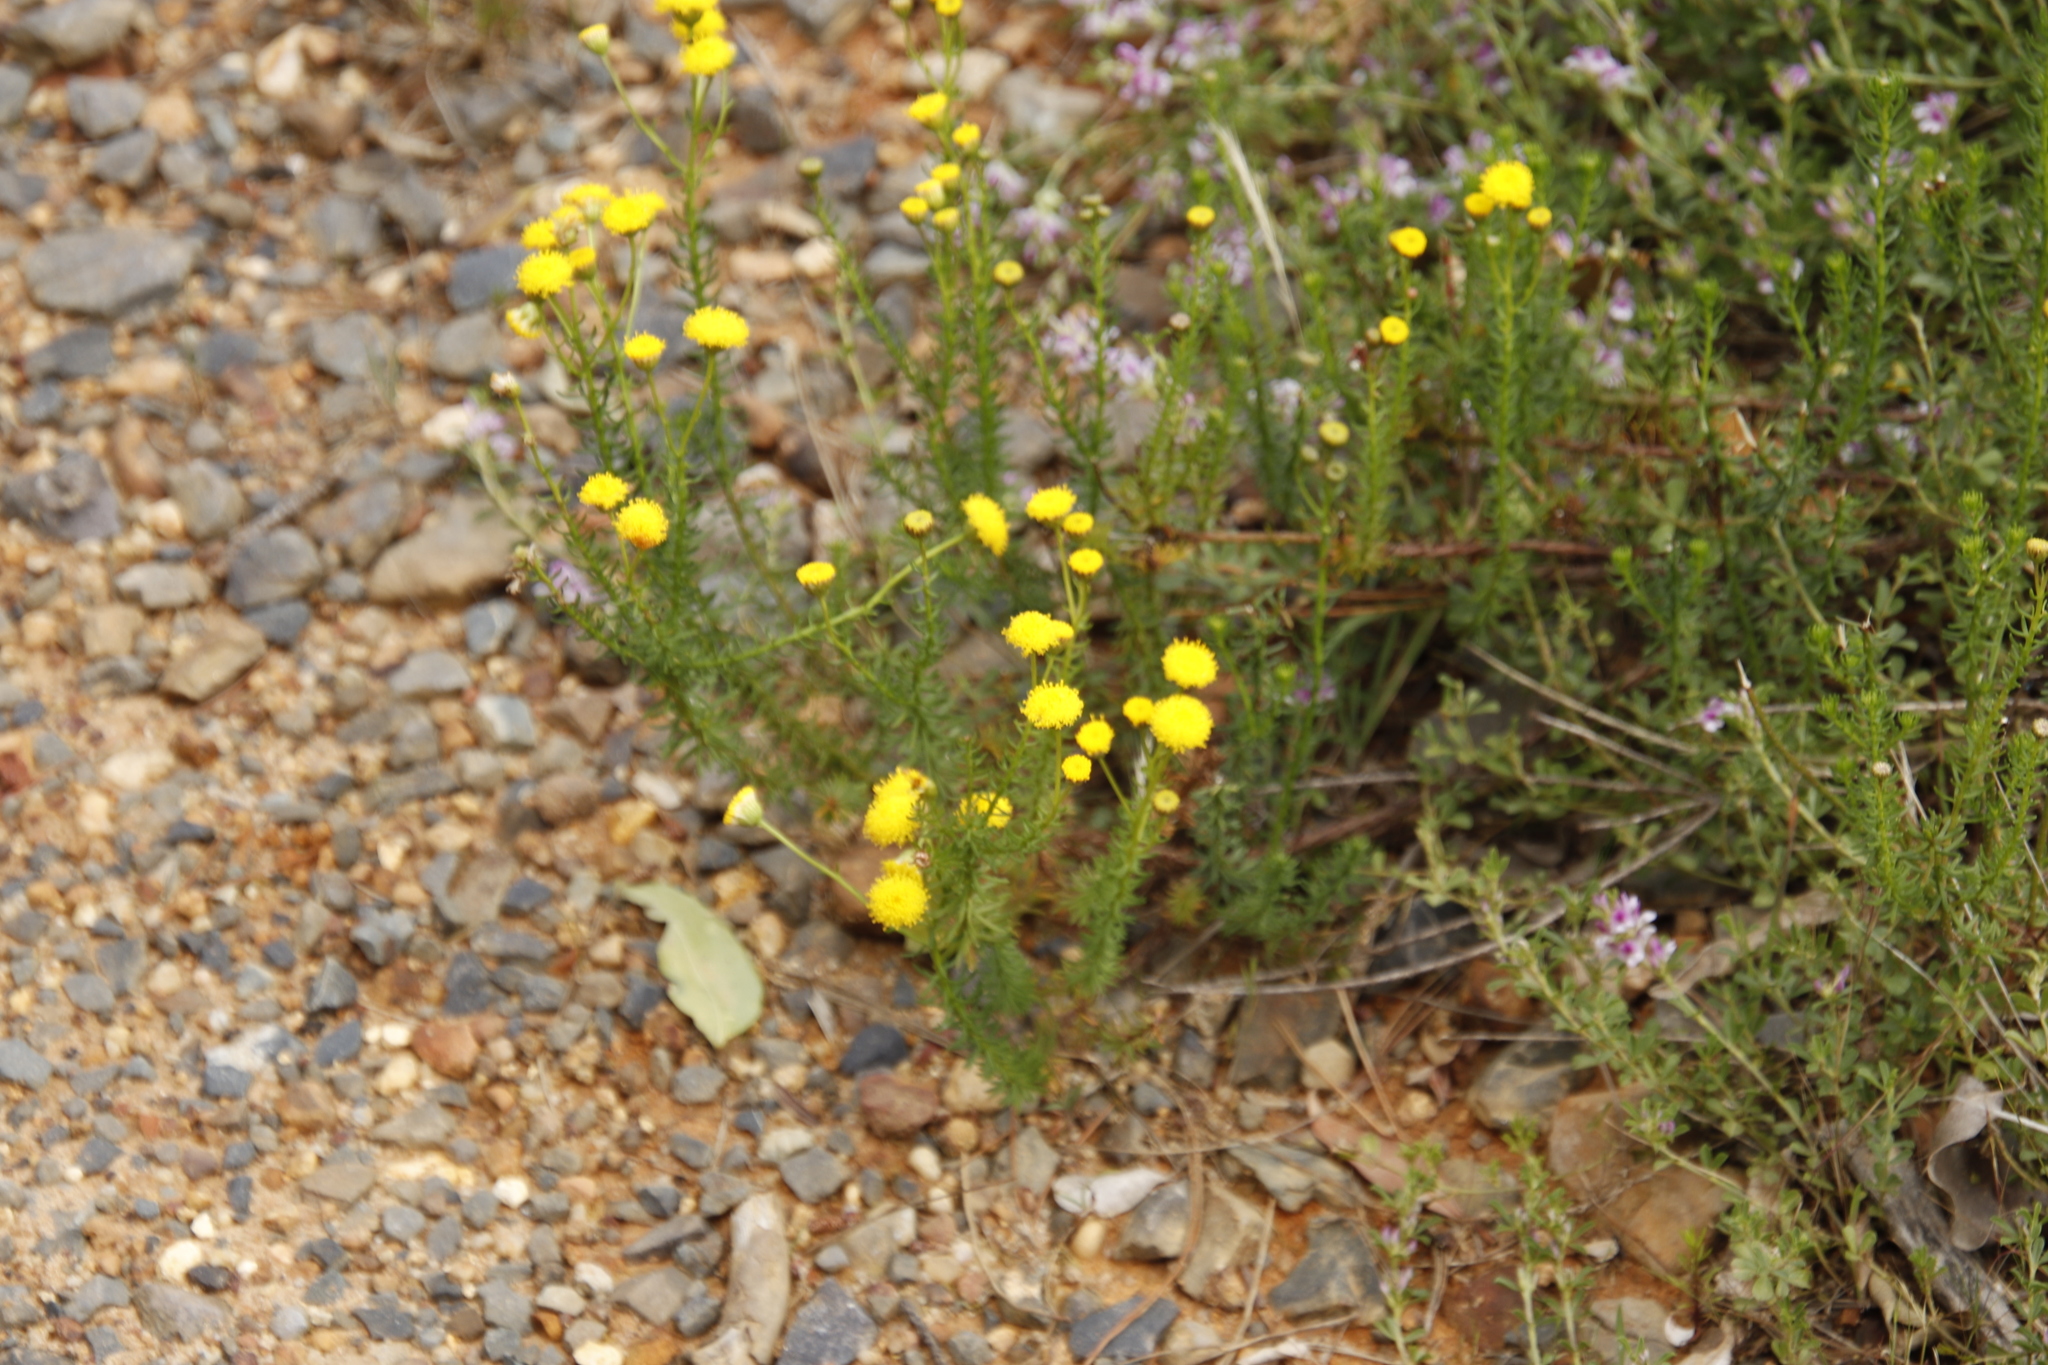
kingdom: Plantae
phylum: Tracheophyta
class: Magnoliopsida
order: Asterales
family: Asteraceae
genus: Chrysocoma
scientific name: Chrysocoma ciliata
